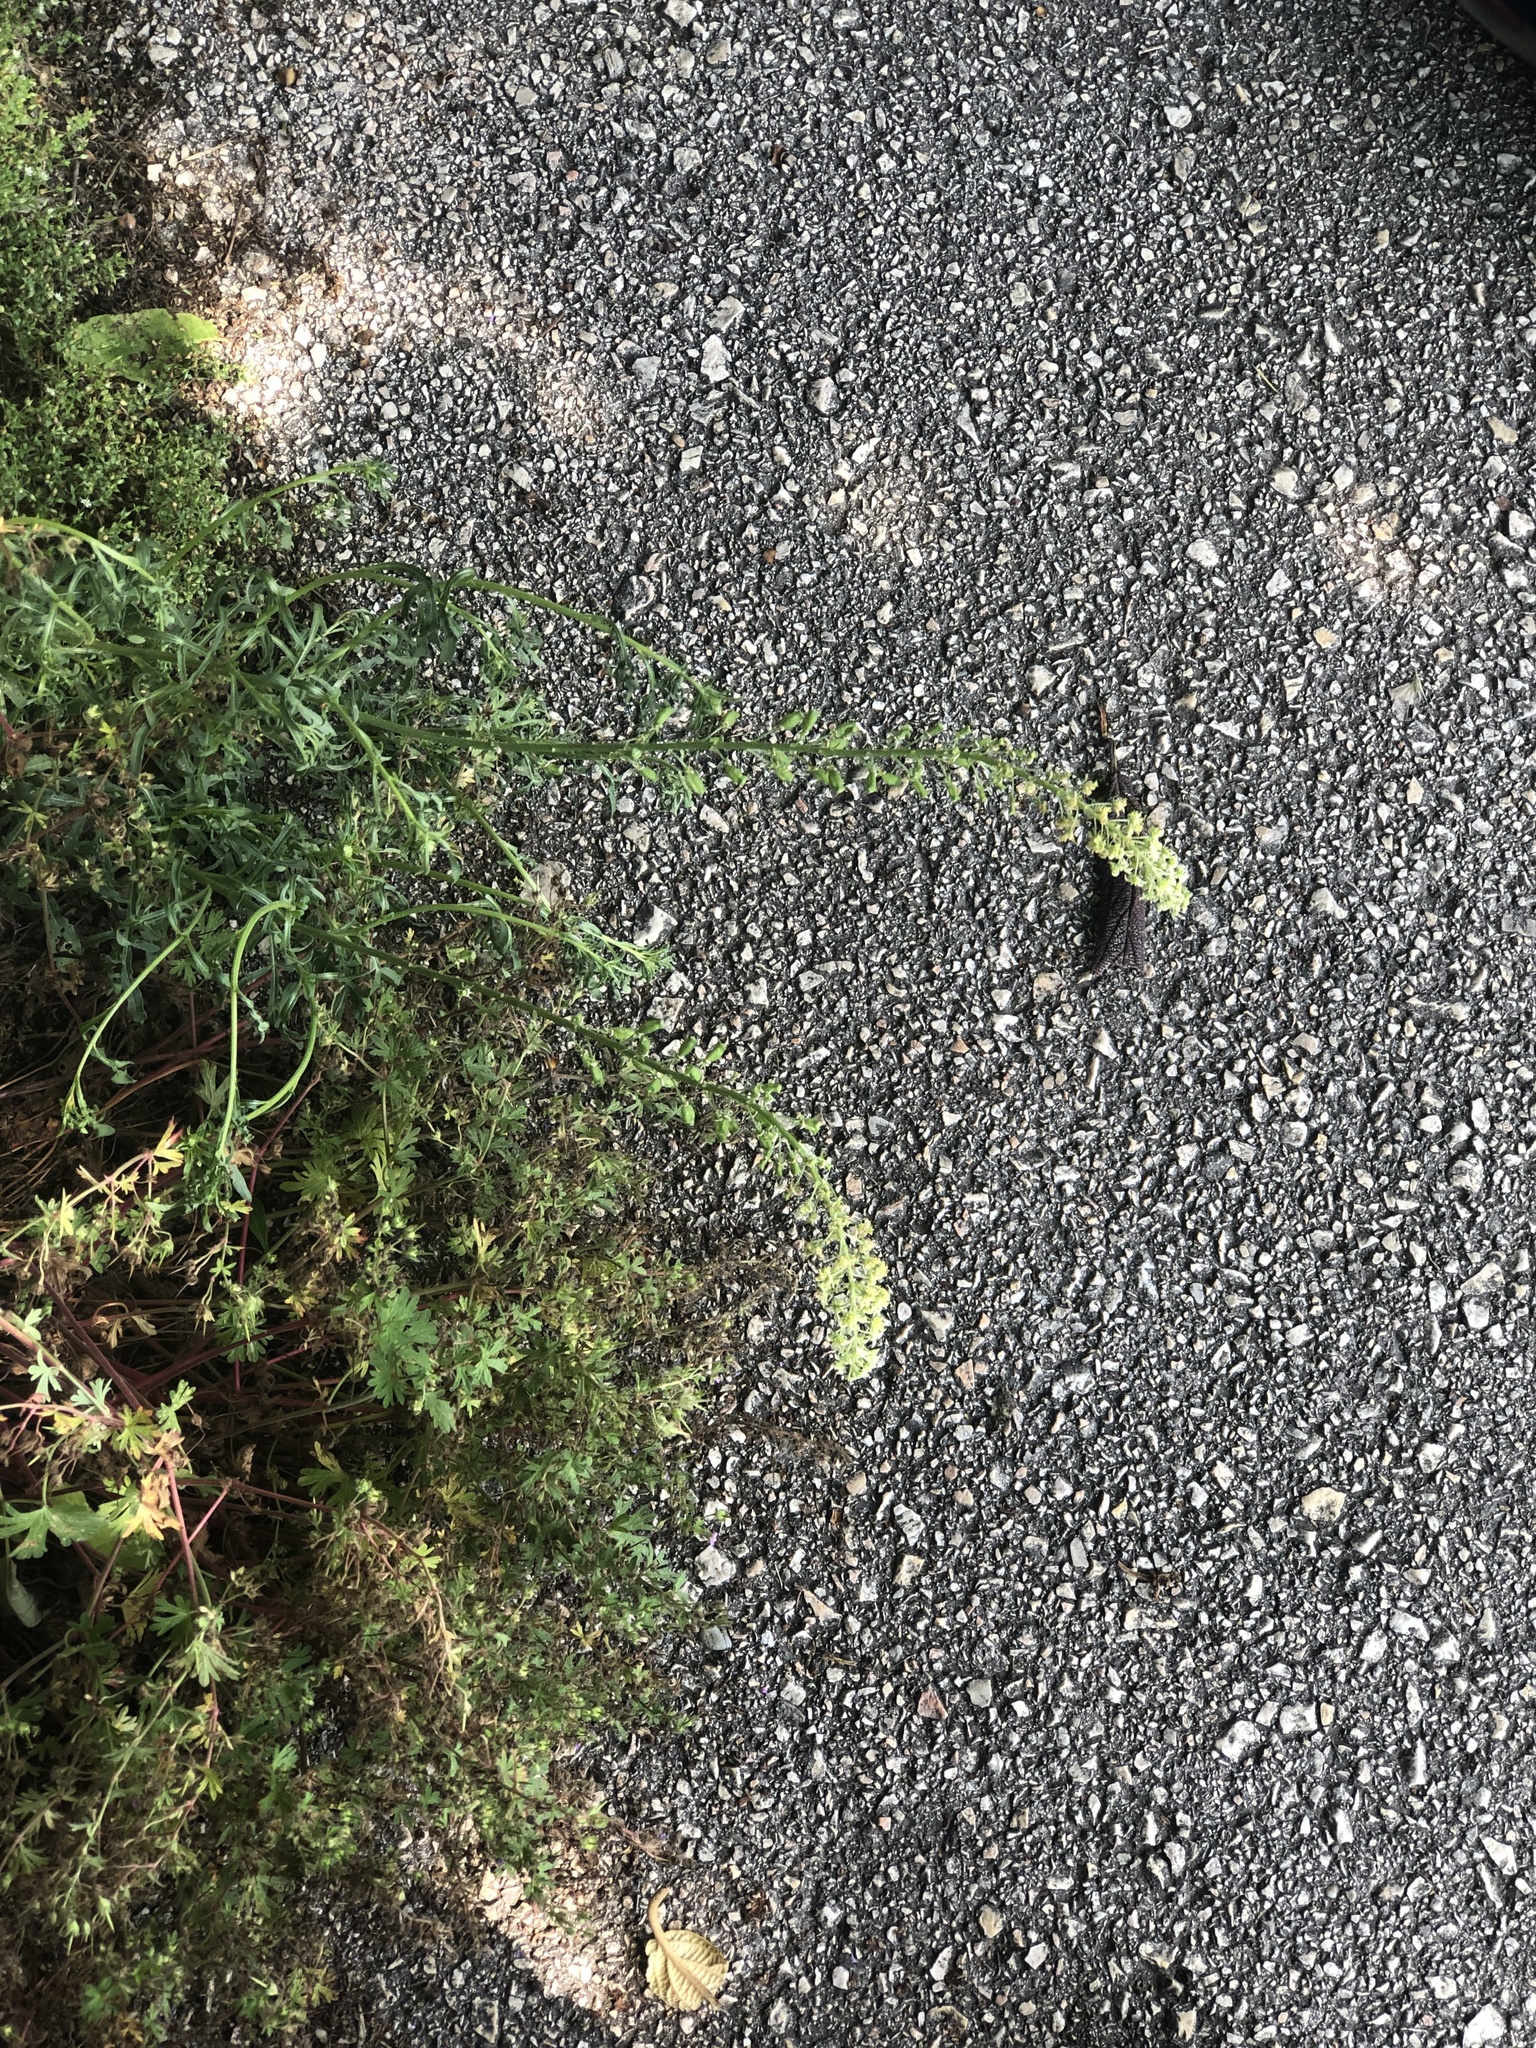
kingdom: Plantae
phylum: Tracheophyta
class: Magnoliopsida
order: Brassicales
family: Resedaceae
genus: Reseda
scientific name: Reseda lutea
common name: Wild mignonette
